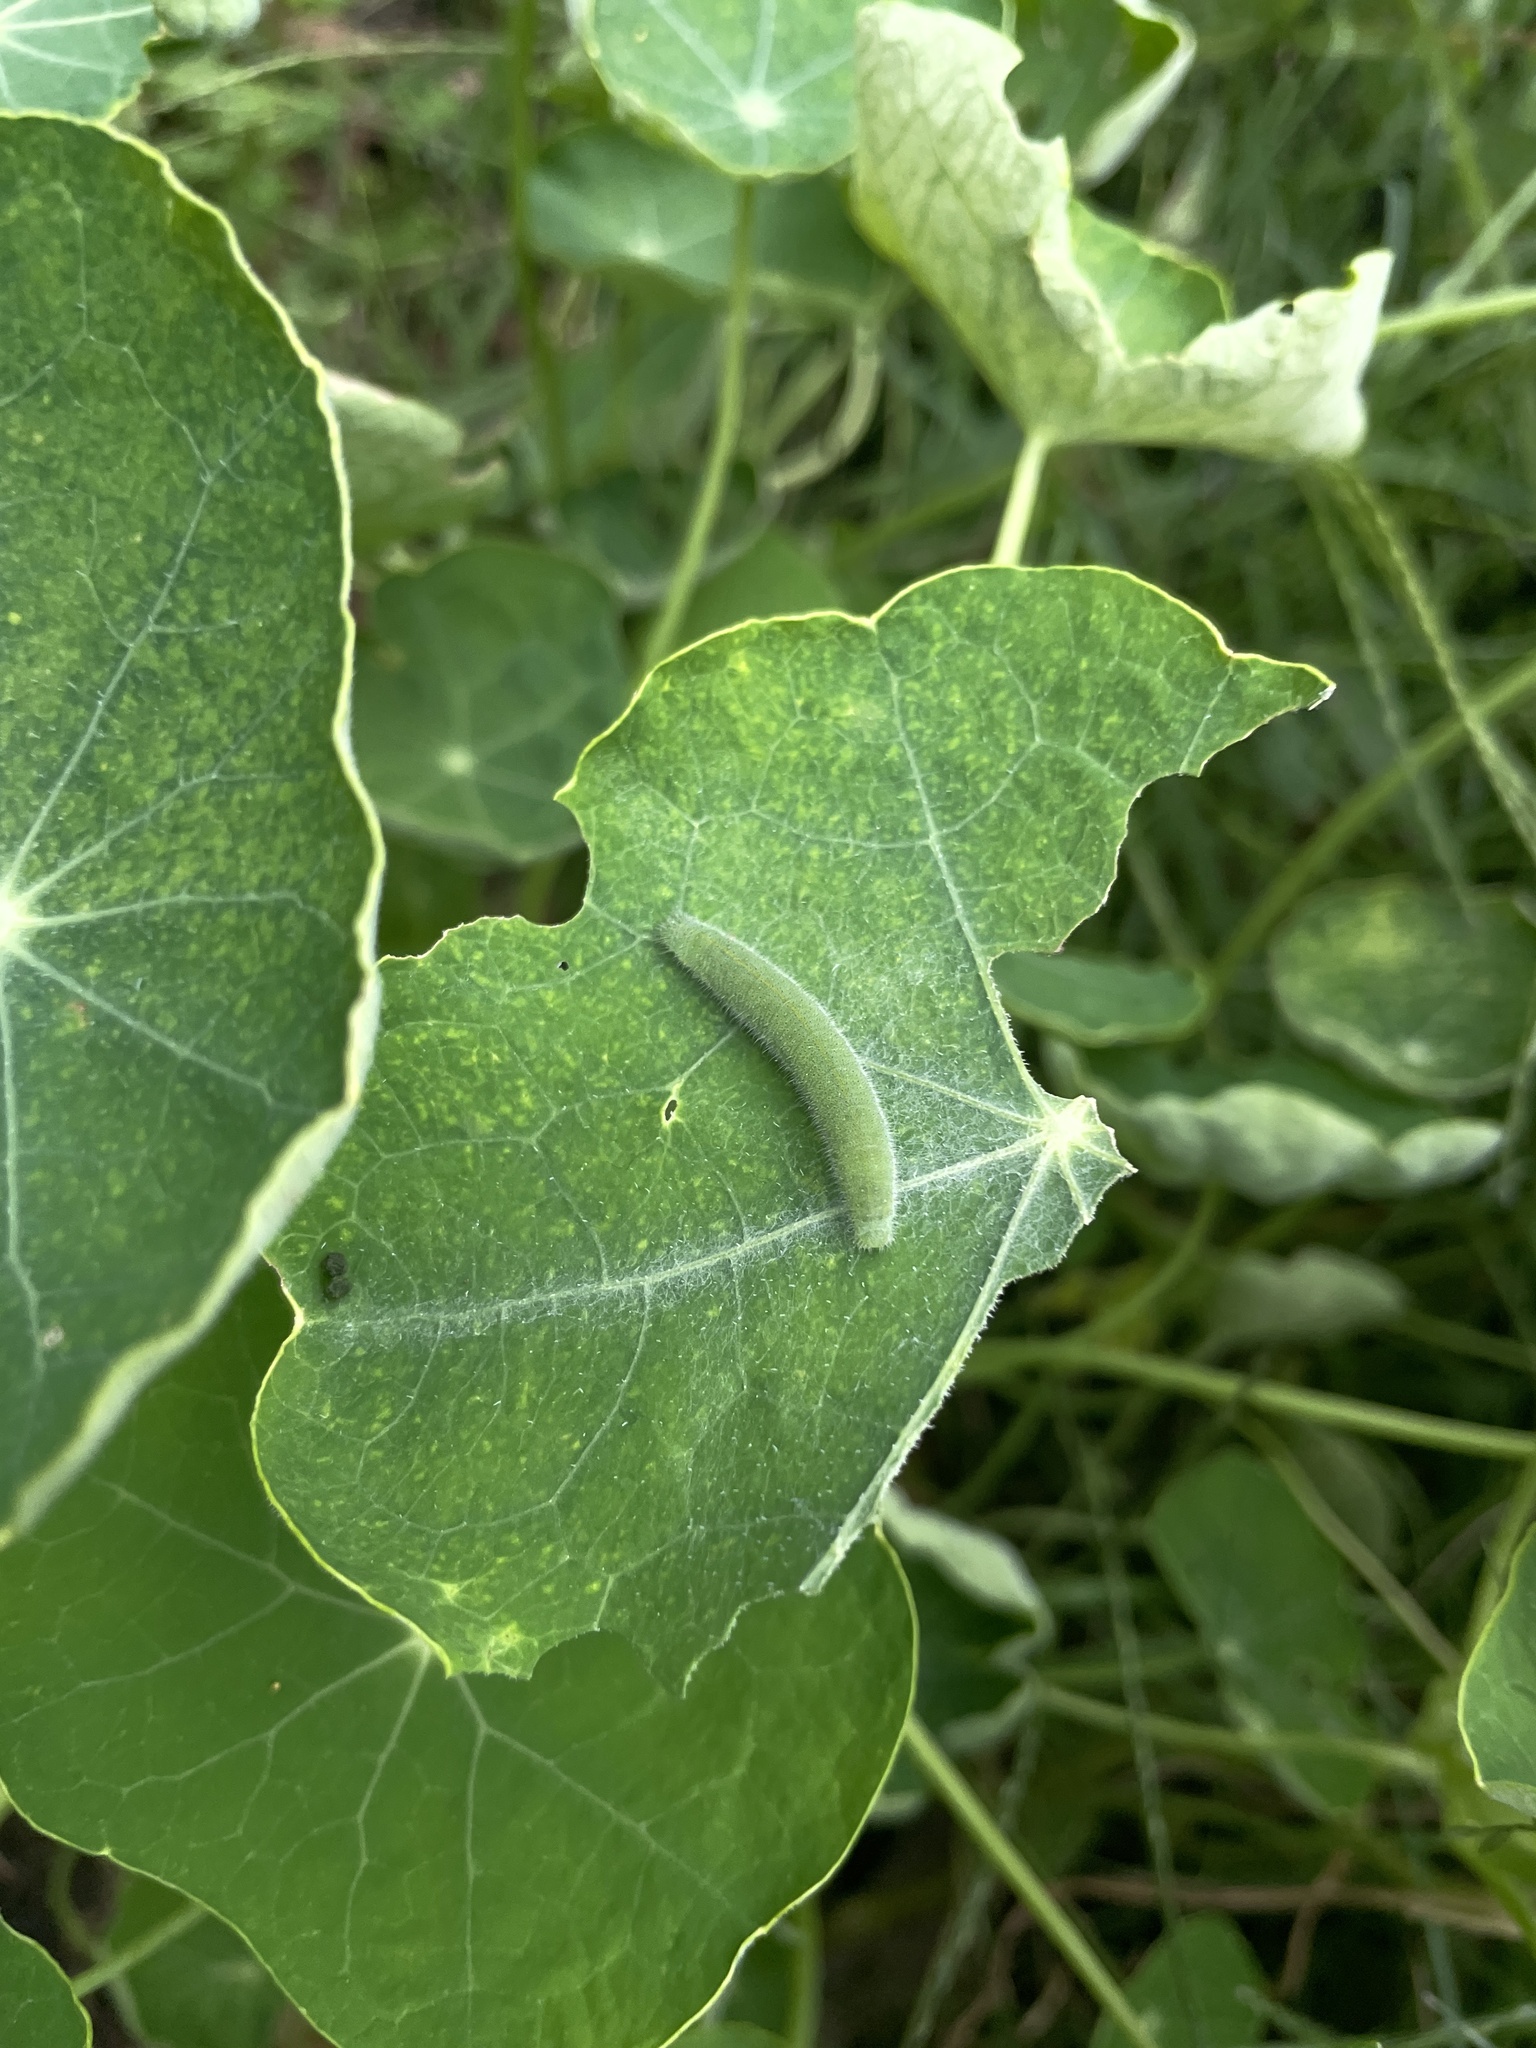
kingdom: Animalia
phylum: Arthropoda
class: Insecta
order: Lepidoptera
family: Pieridae
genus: Pieris
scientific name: Pieris rapae
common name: Small white
